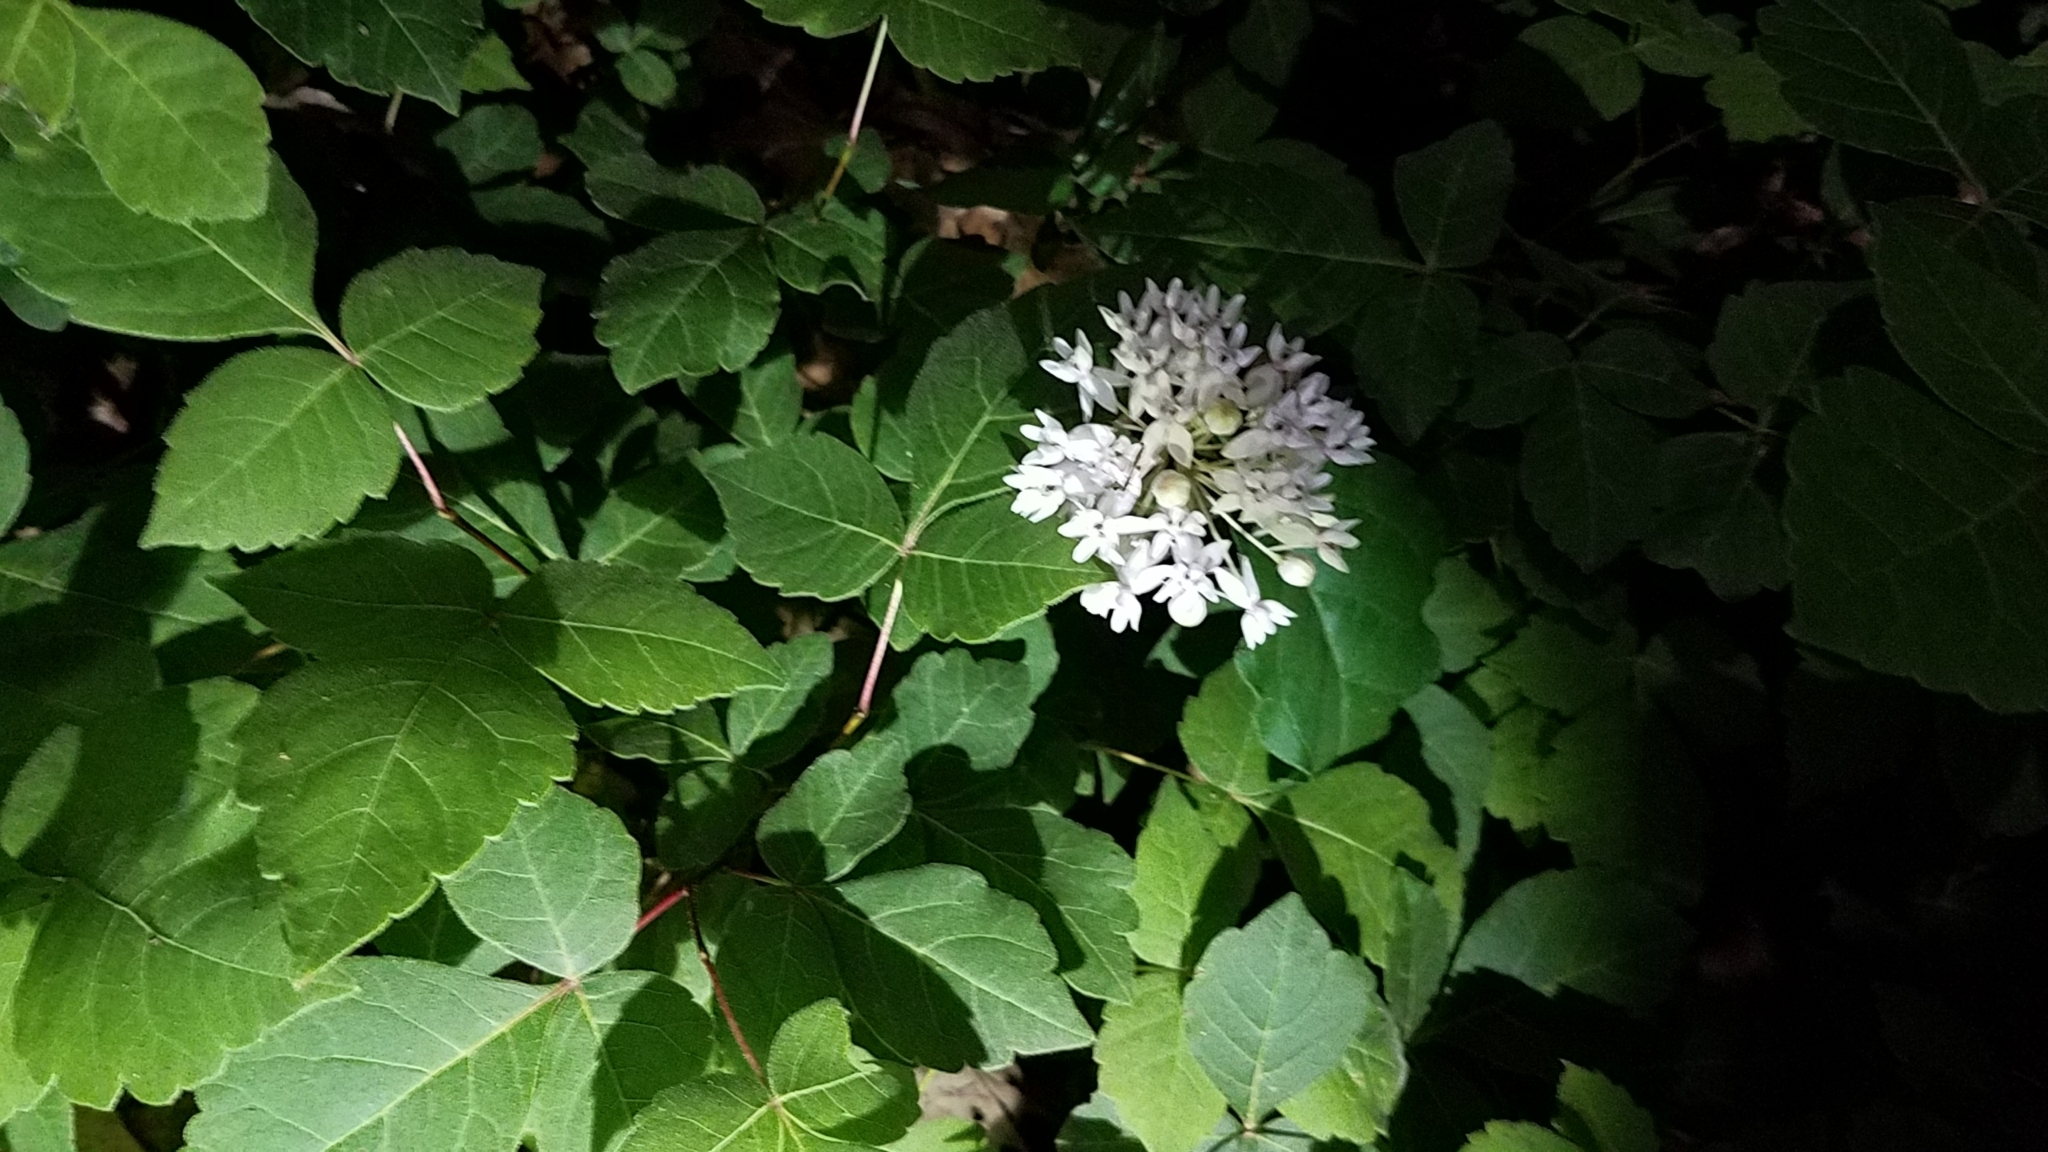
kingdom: Plantae
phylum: Tracheophyta
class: Magnoliopsida
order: Gentianales
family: Apocynaceae
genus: Asclepias
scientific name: Asclepias quadrifolia
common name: Whorled milkweed
